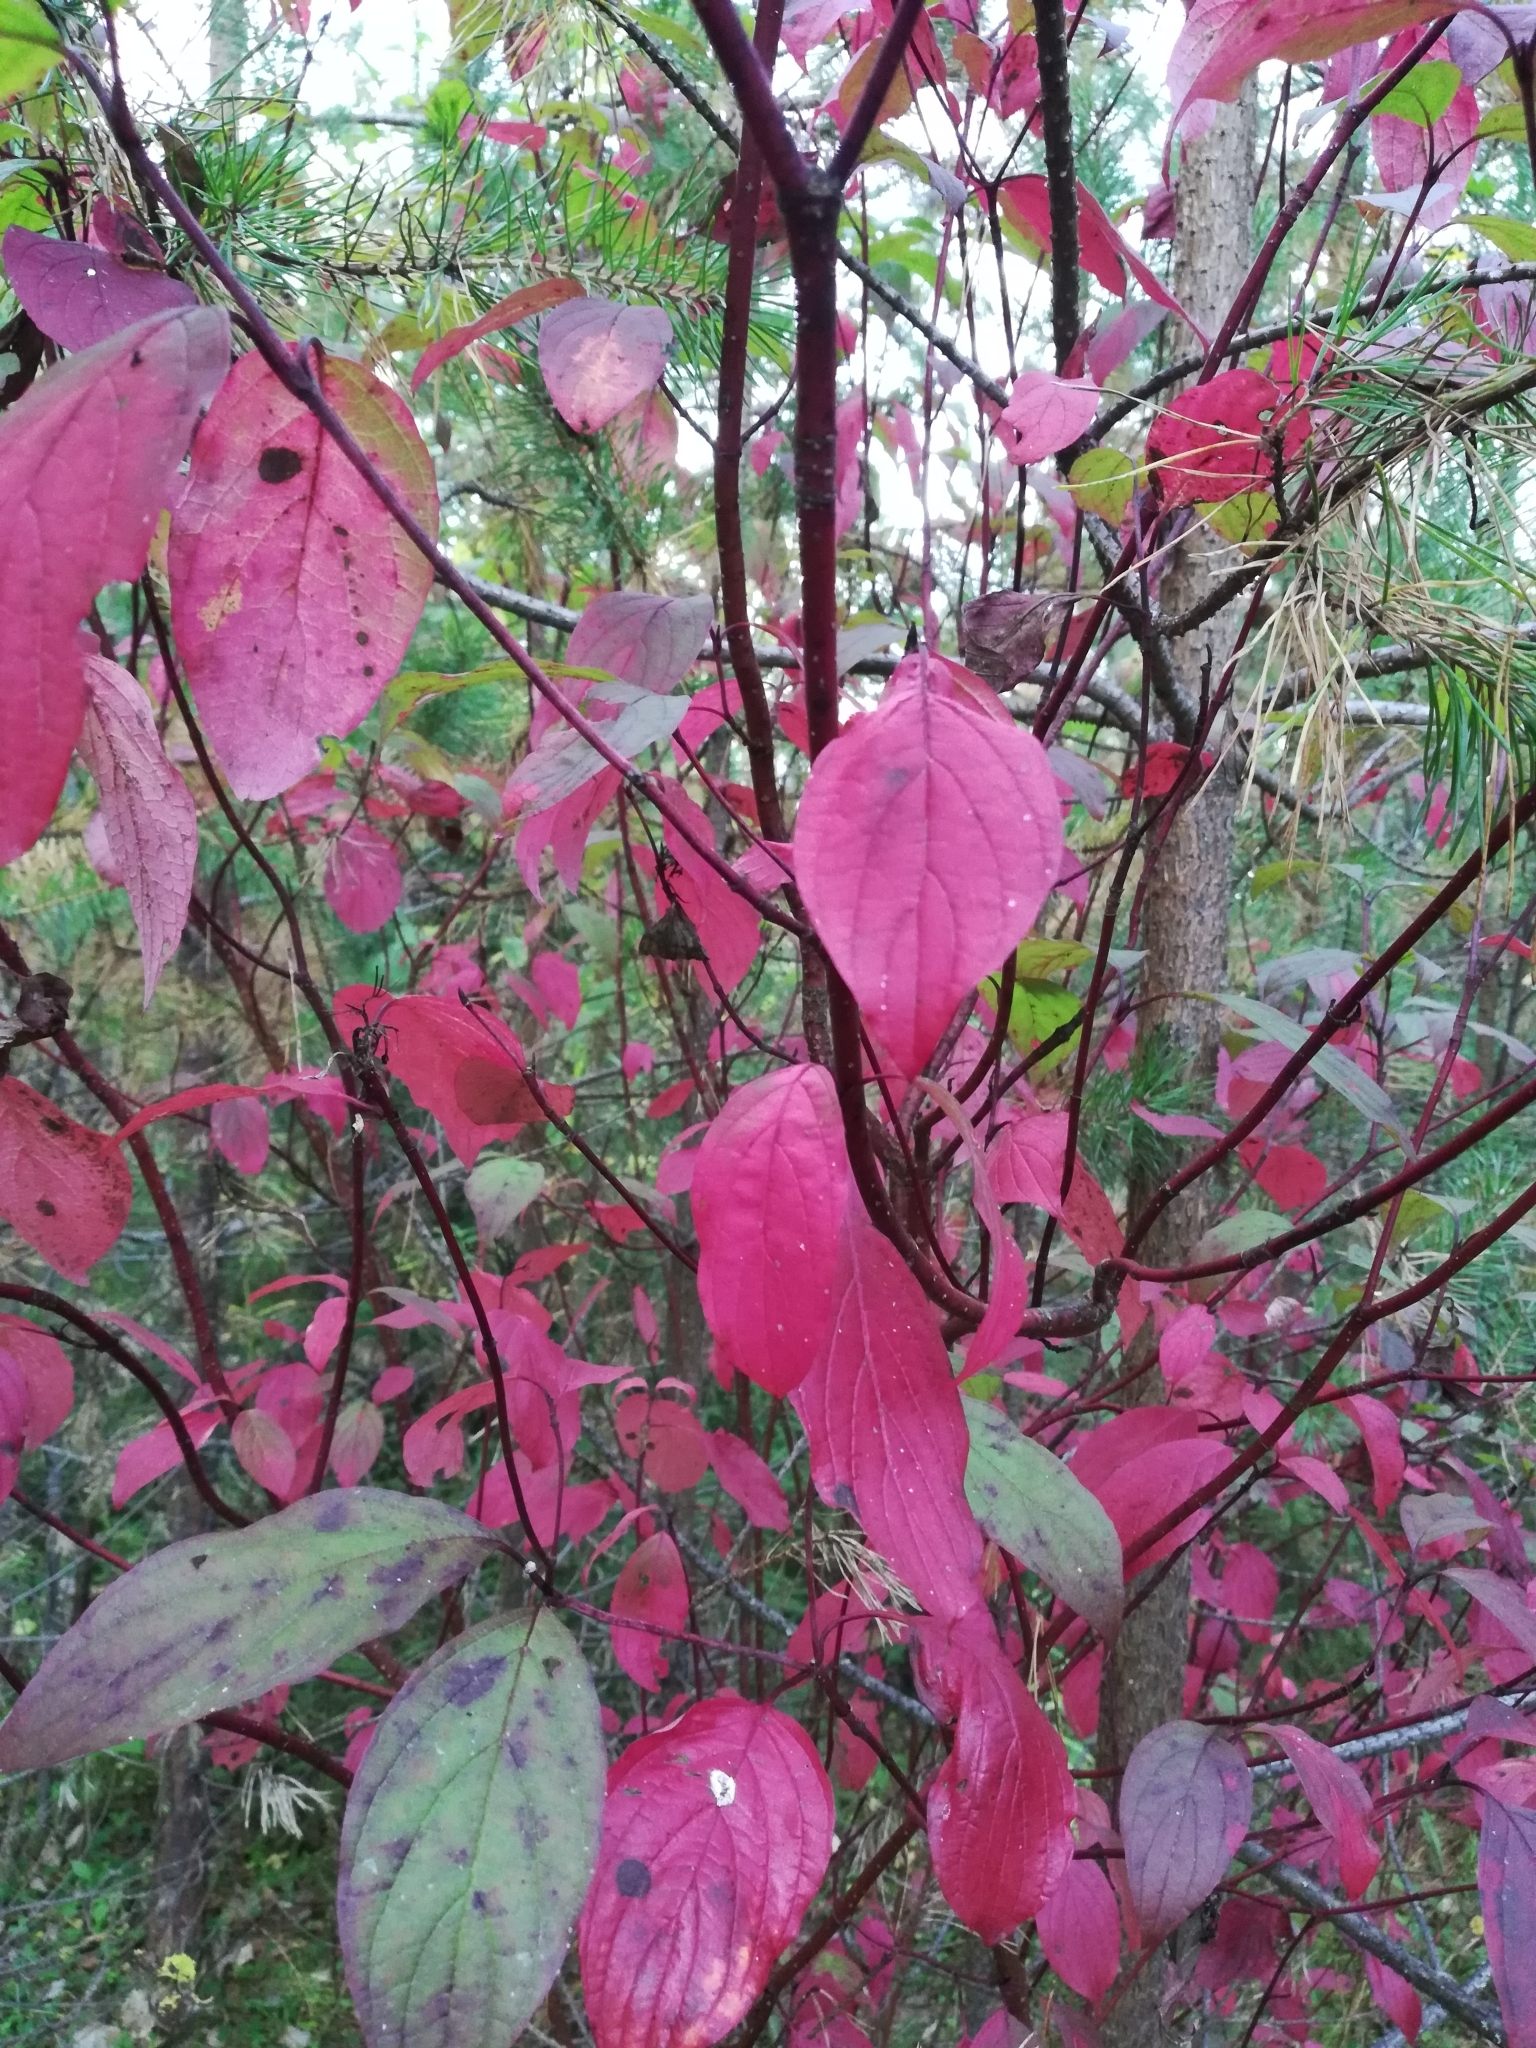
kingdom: Plantae
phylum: Tracheophyta
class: Magnoliopsida
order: Cornales
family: Cornaceae
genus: Cornus
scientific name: Cornus alba
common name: White dogwood
